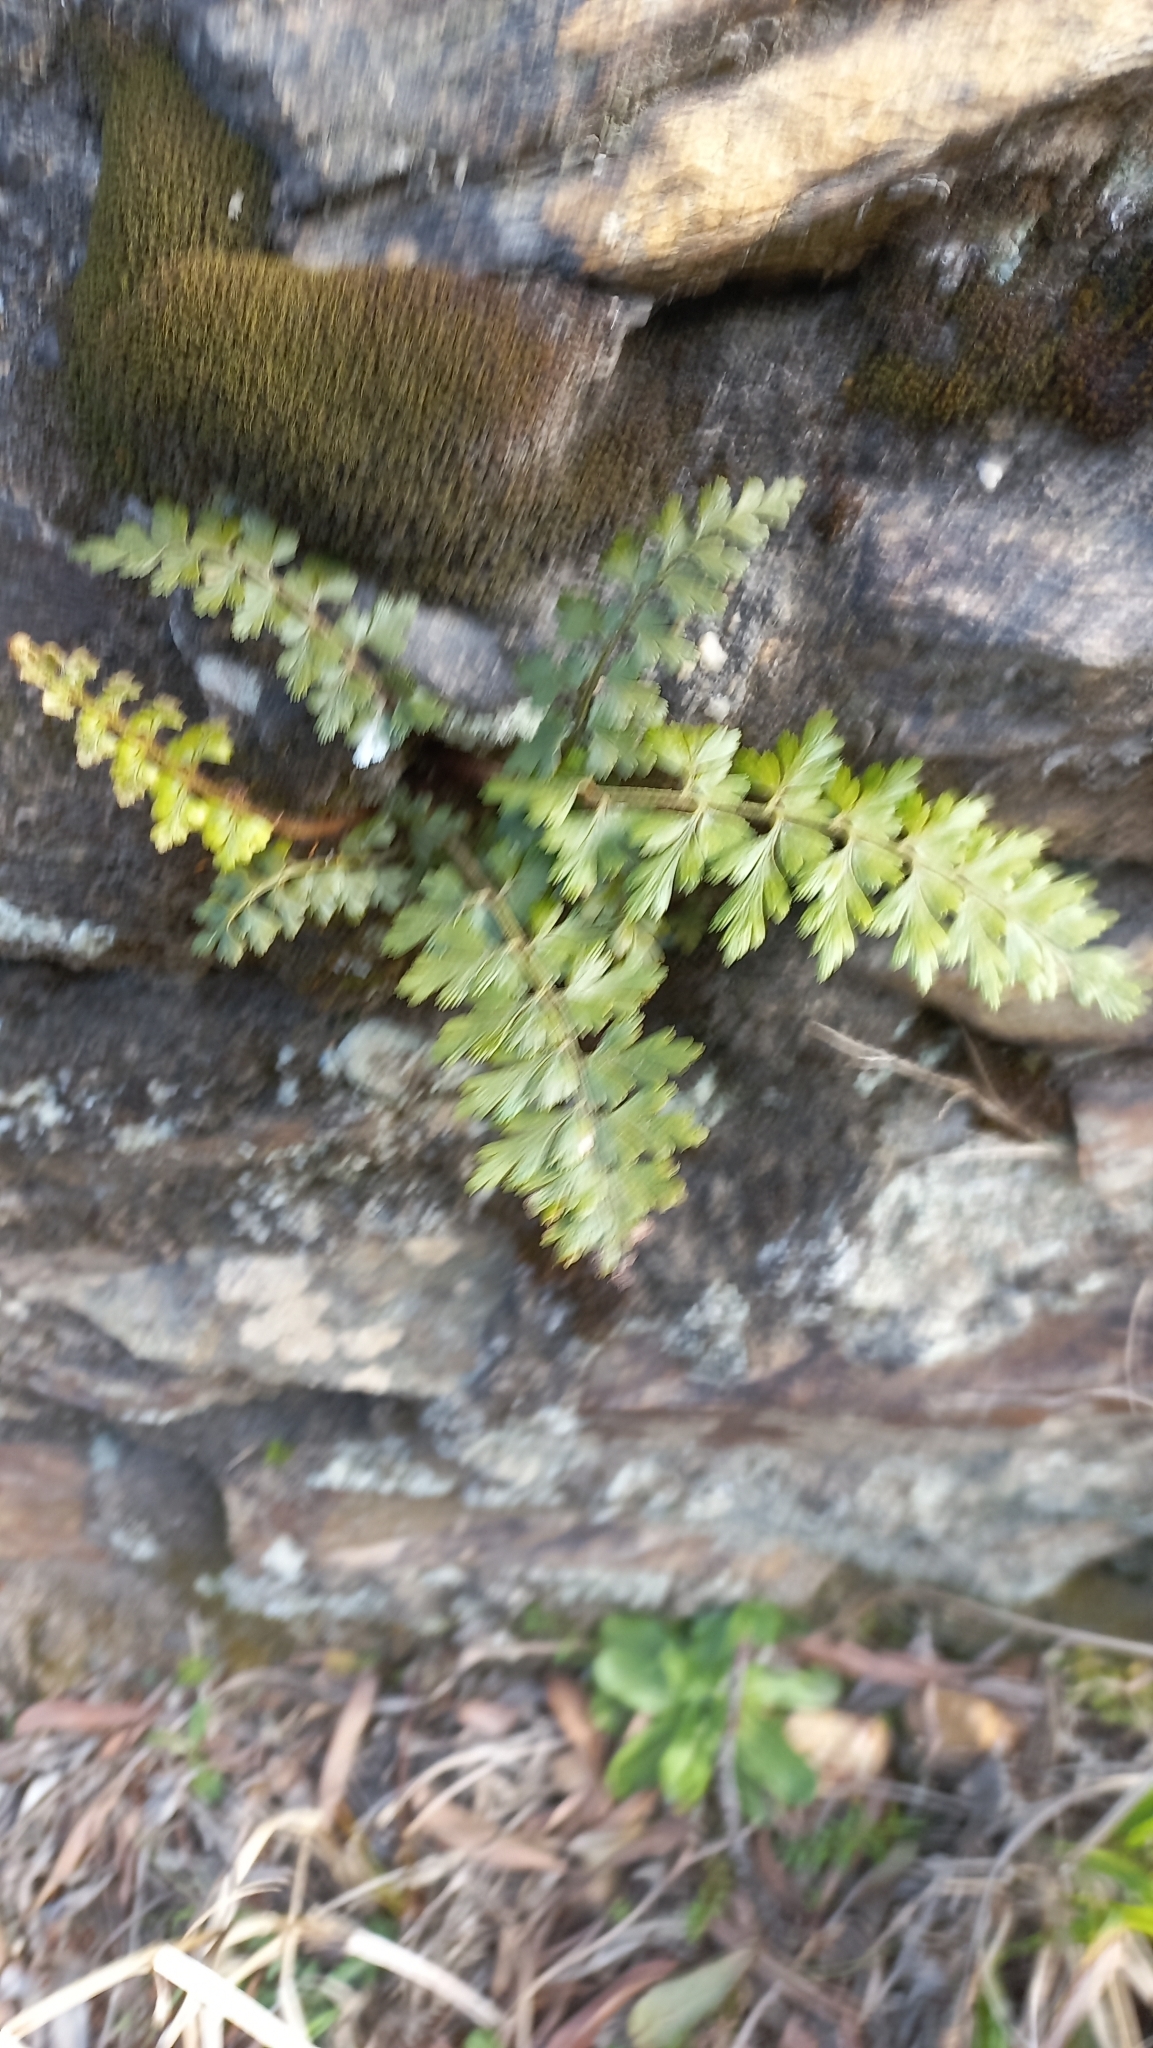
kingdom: Plantae
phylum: Tracheophyta
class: Polypodiopsida
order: Polypodiales
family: Aspleniaceae
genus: Asplenium
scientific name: Asplenium aethiopicum
